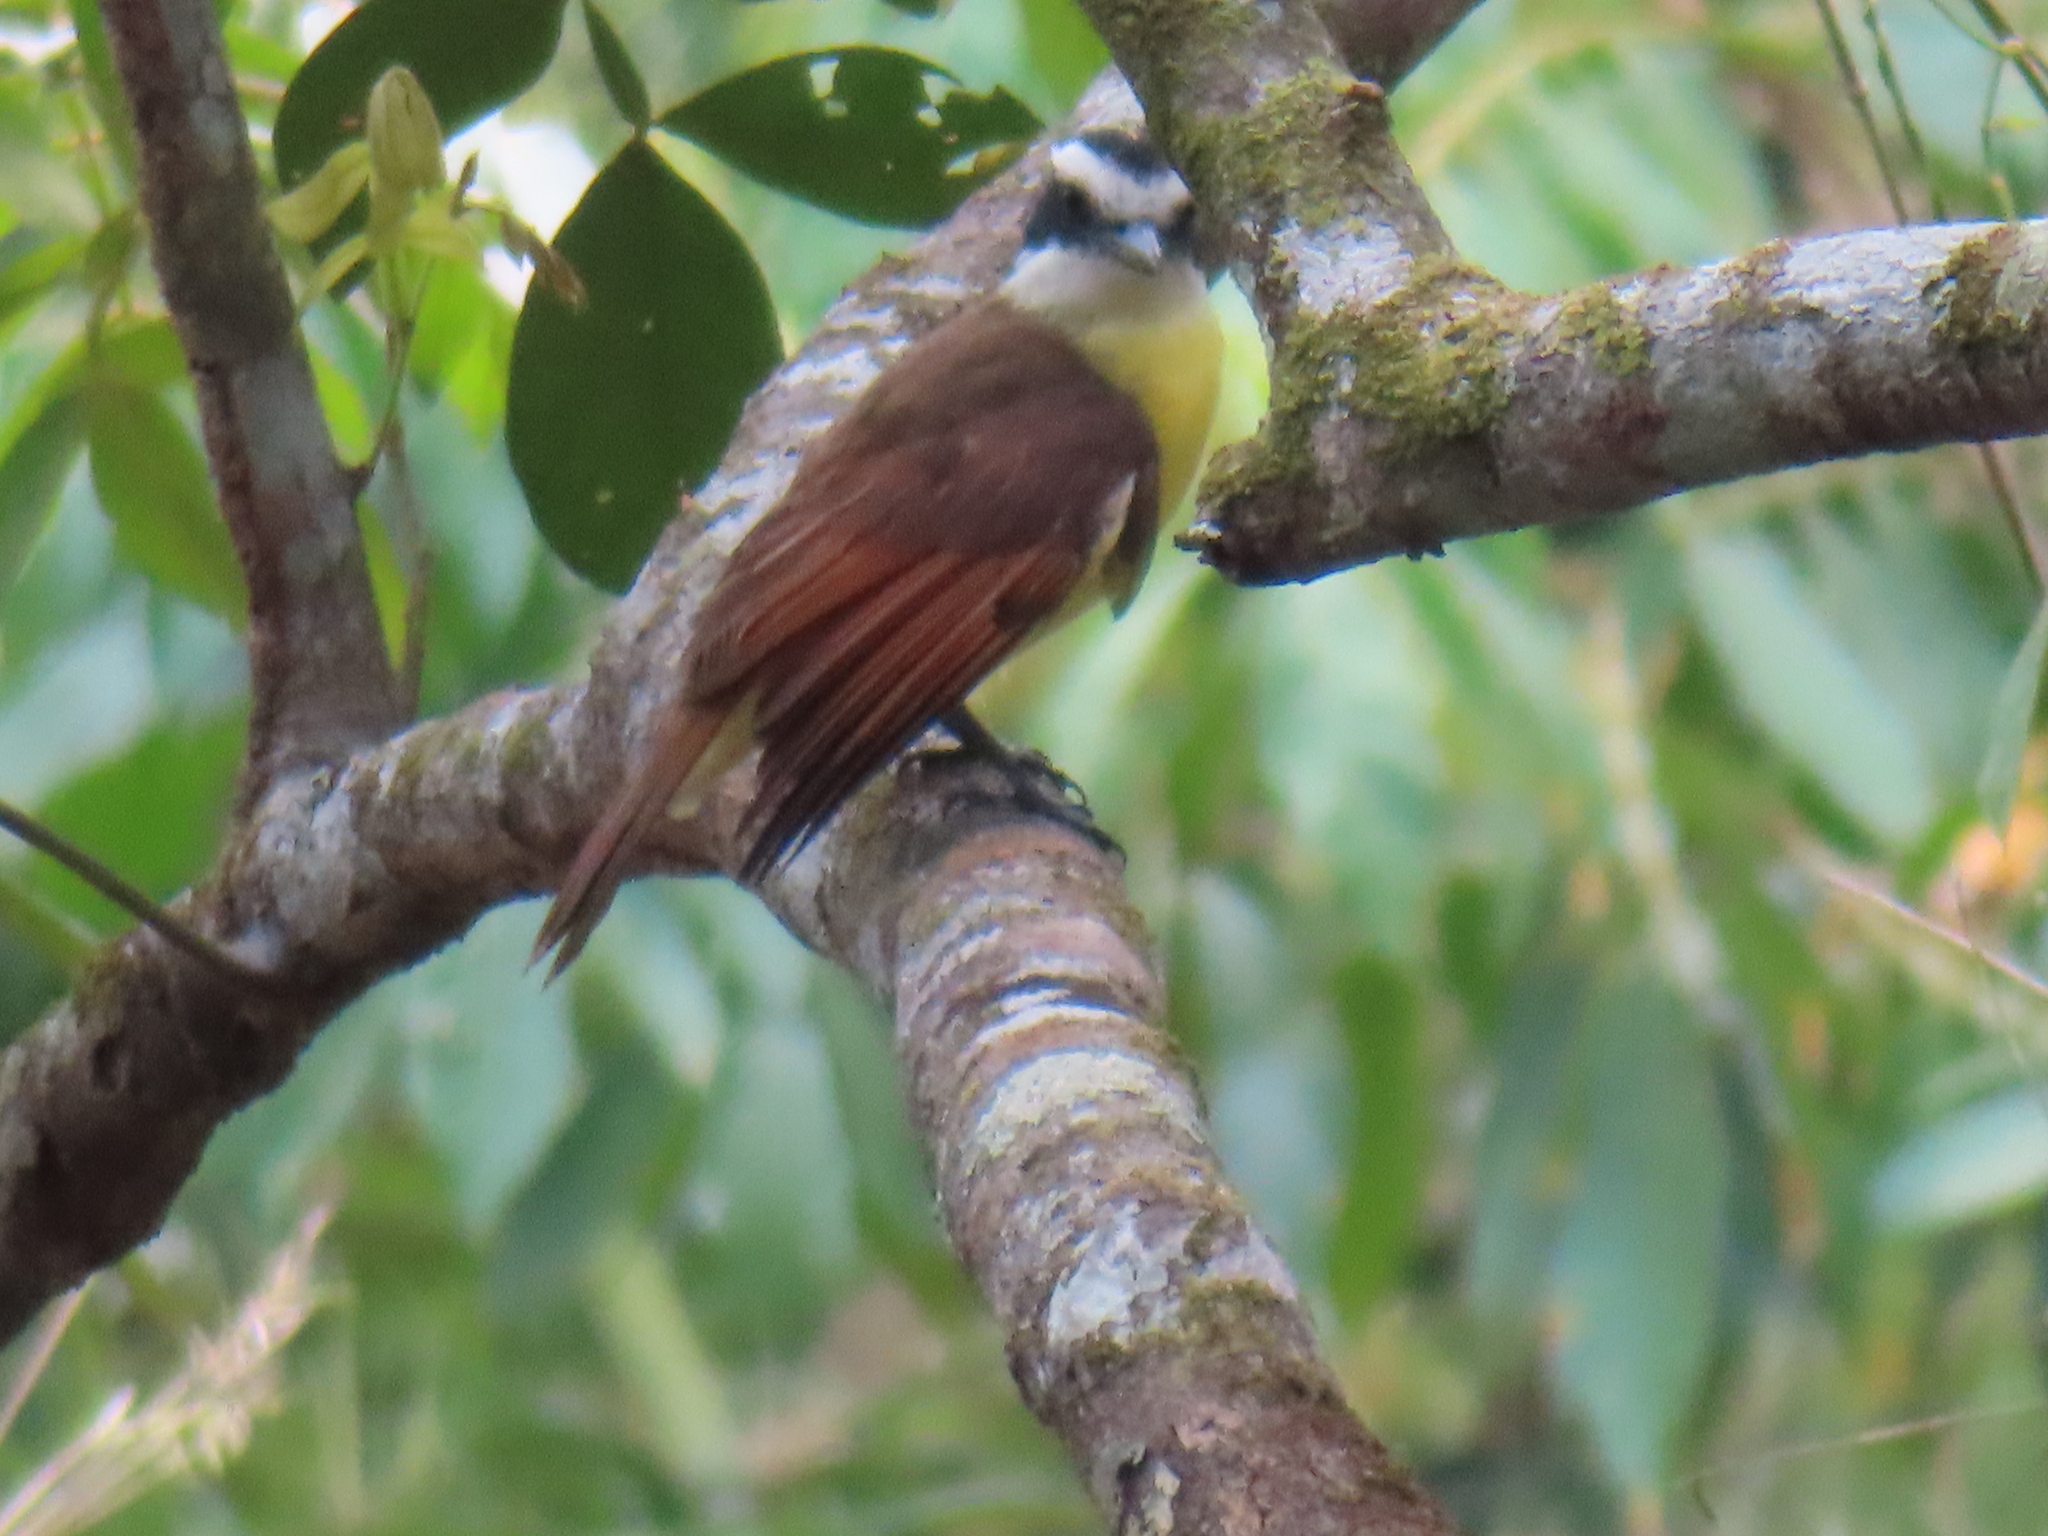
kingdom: Animalia
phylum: Chordata
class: Aves
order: Passeriformes
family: Tyrannidae
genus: Pitangus
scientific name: Pitangus sulphuratus
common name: Great kiskadee
